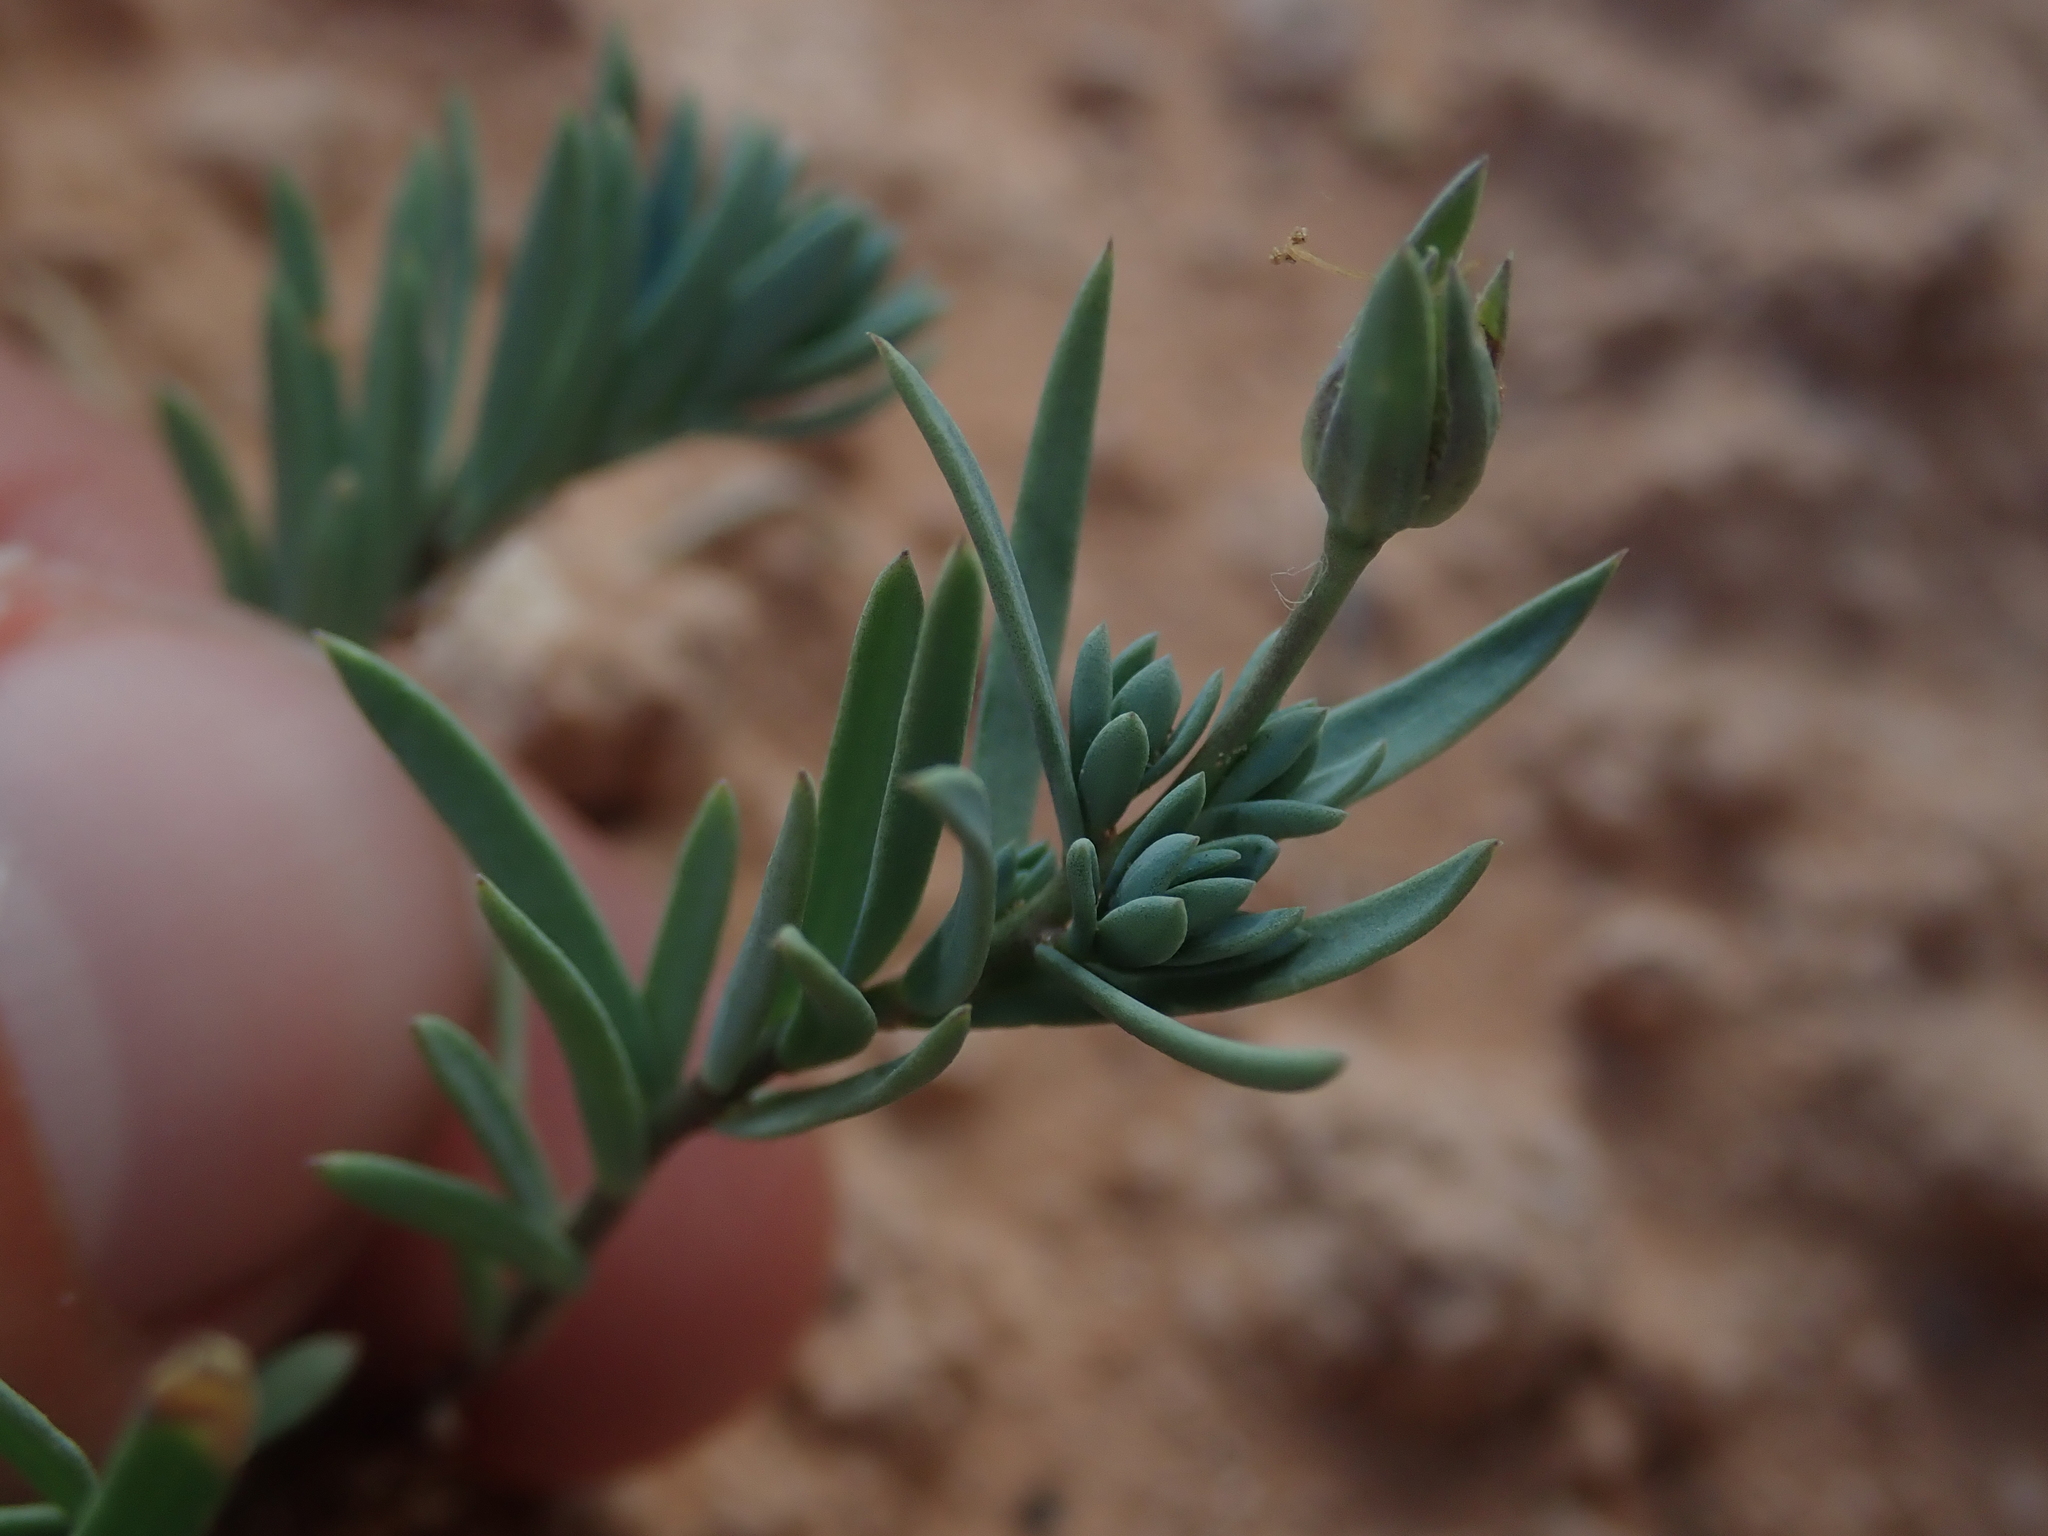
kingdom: Plantae
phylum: Tracheophyta
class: Magnoliopsida
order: Malpighiales
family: Linaceae
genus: Linum
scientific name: Linum subteres
